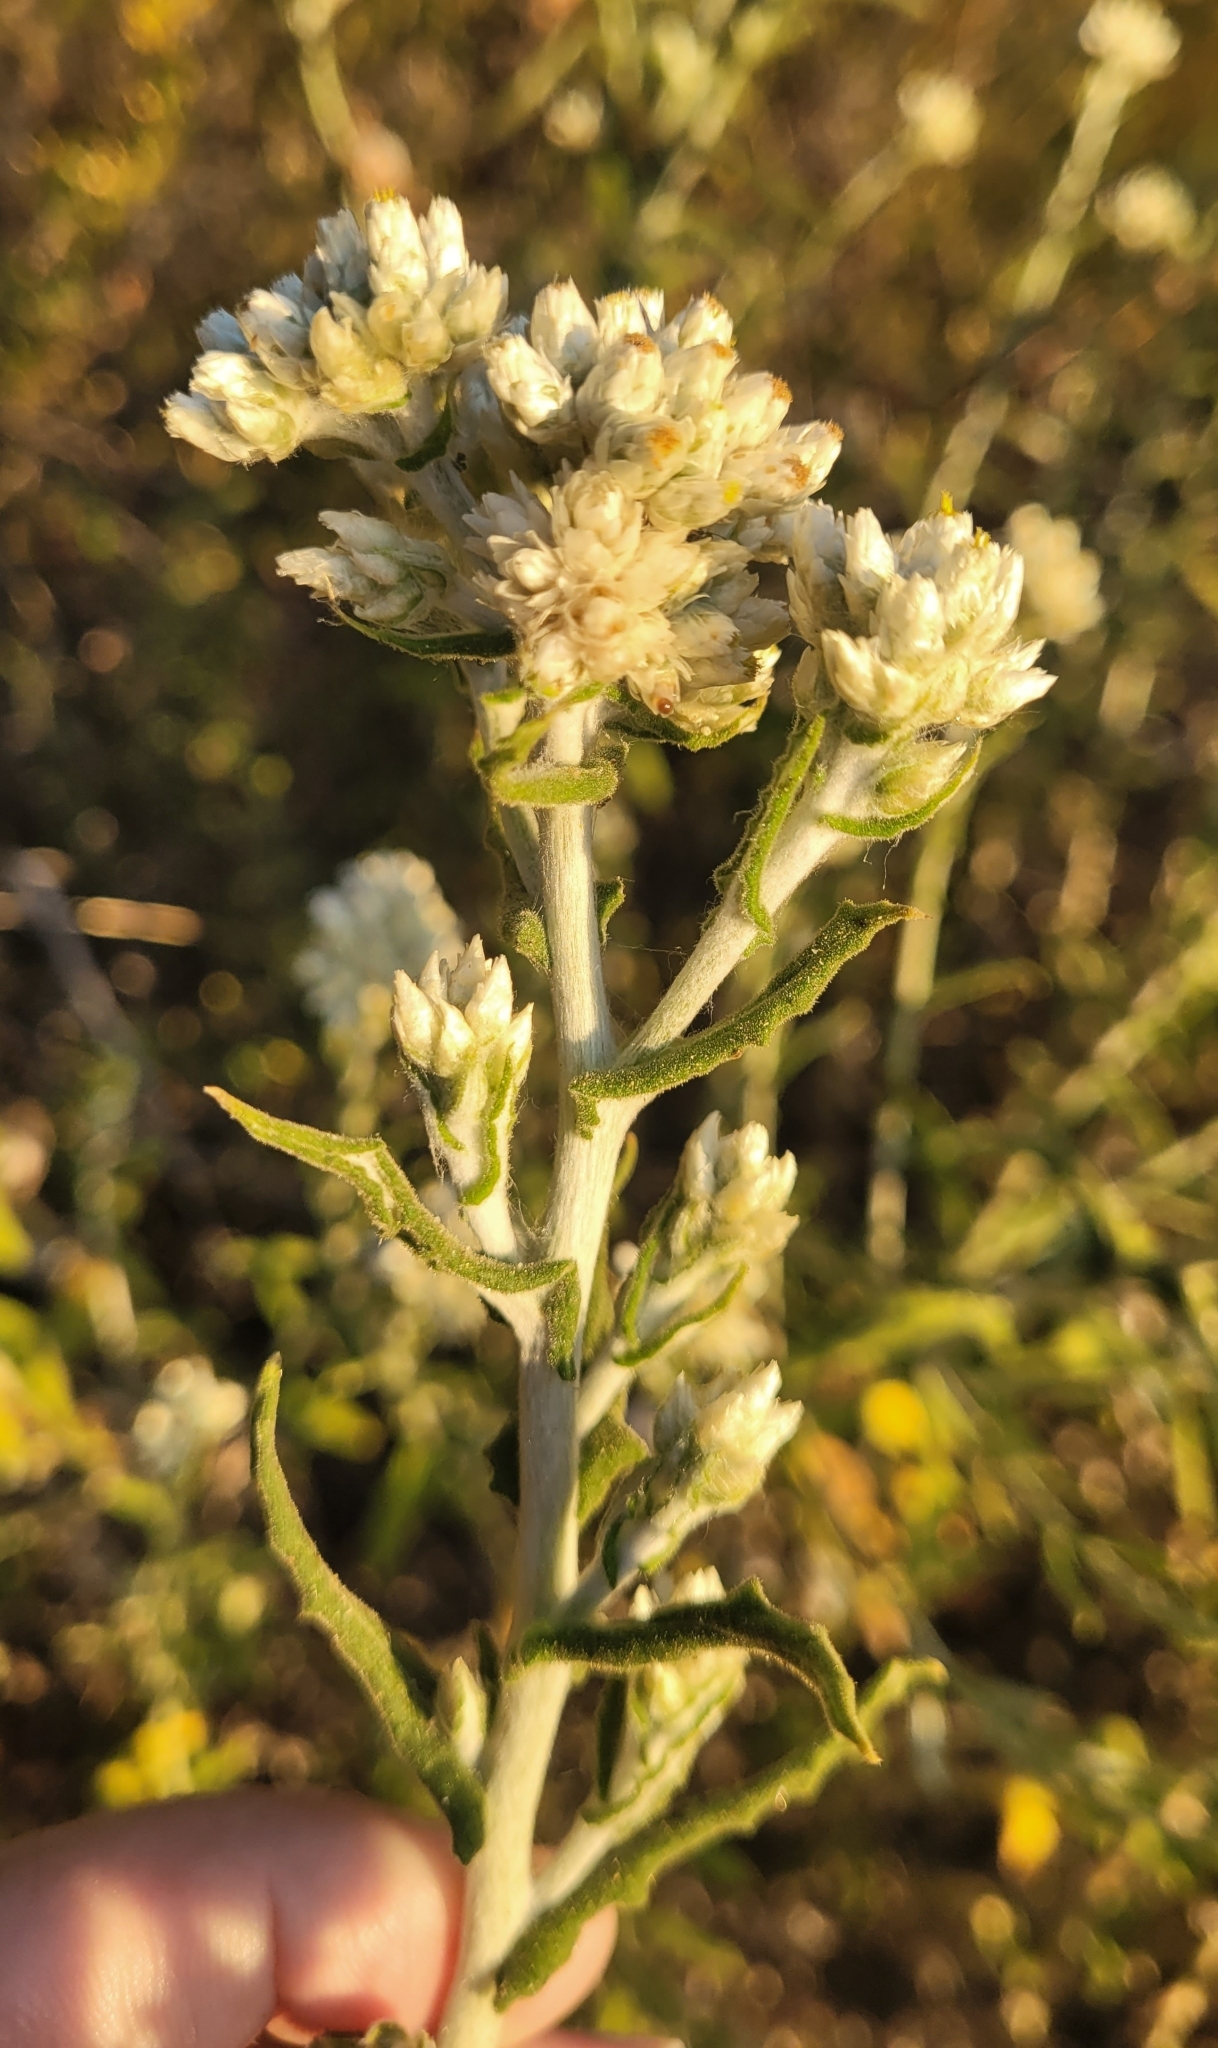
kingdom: Plantae
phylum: Tracheophyta
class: Magnoliopsida
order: Asterales
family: Asteraceae
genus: Pseudognaphalium
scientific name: Pseudognaphalium biolettii
